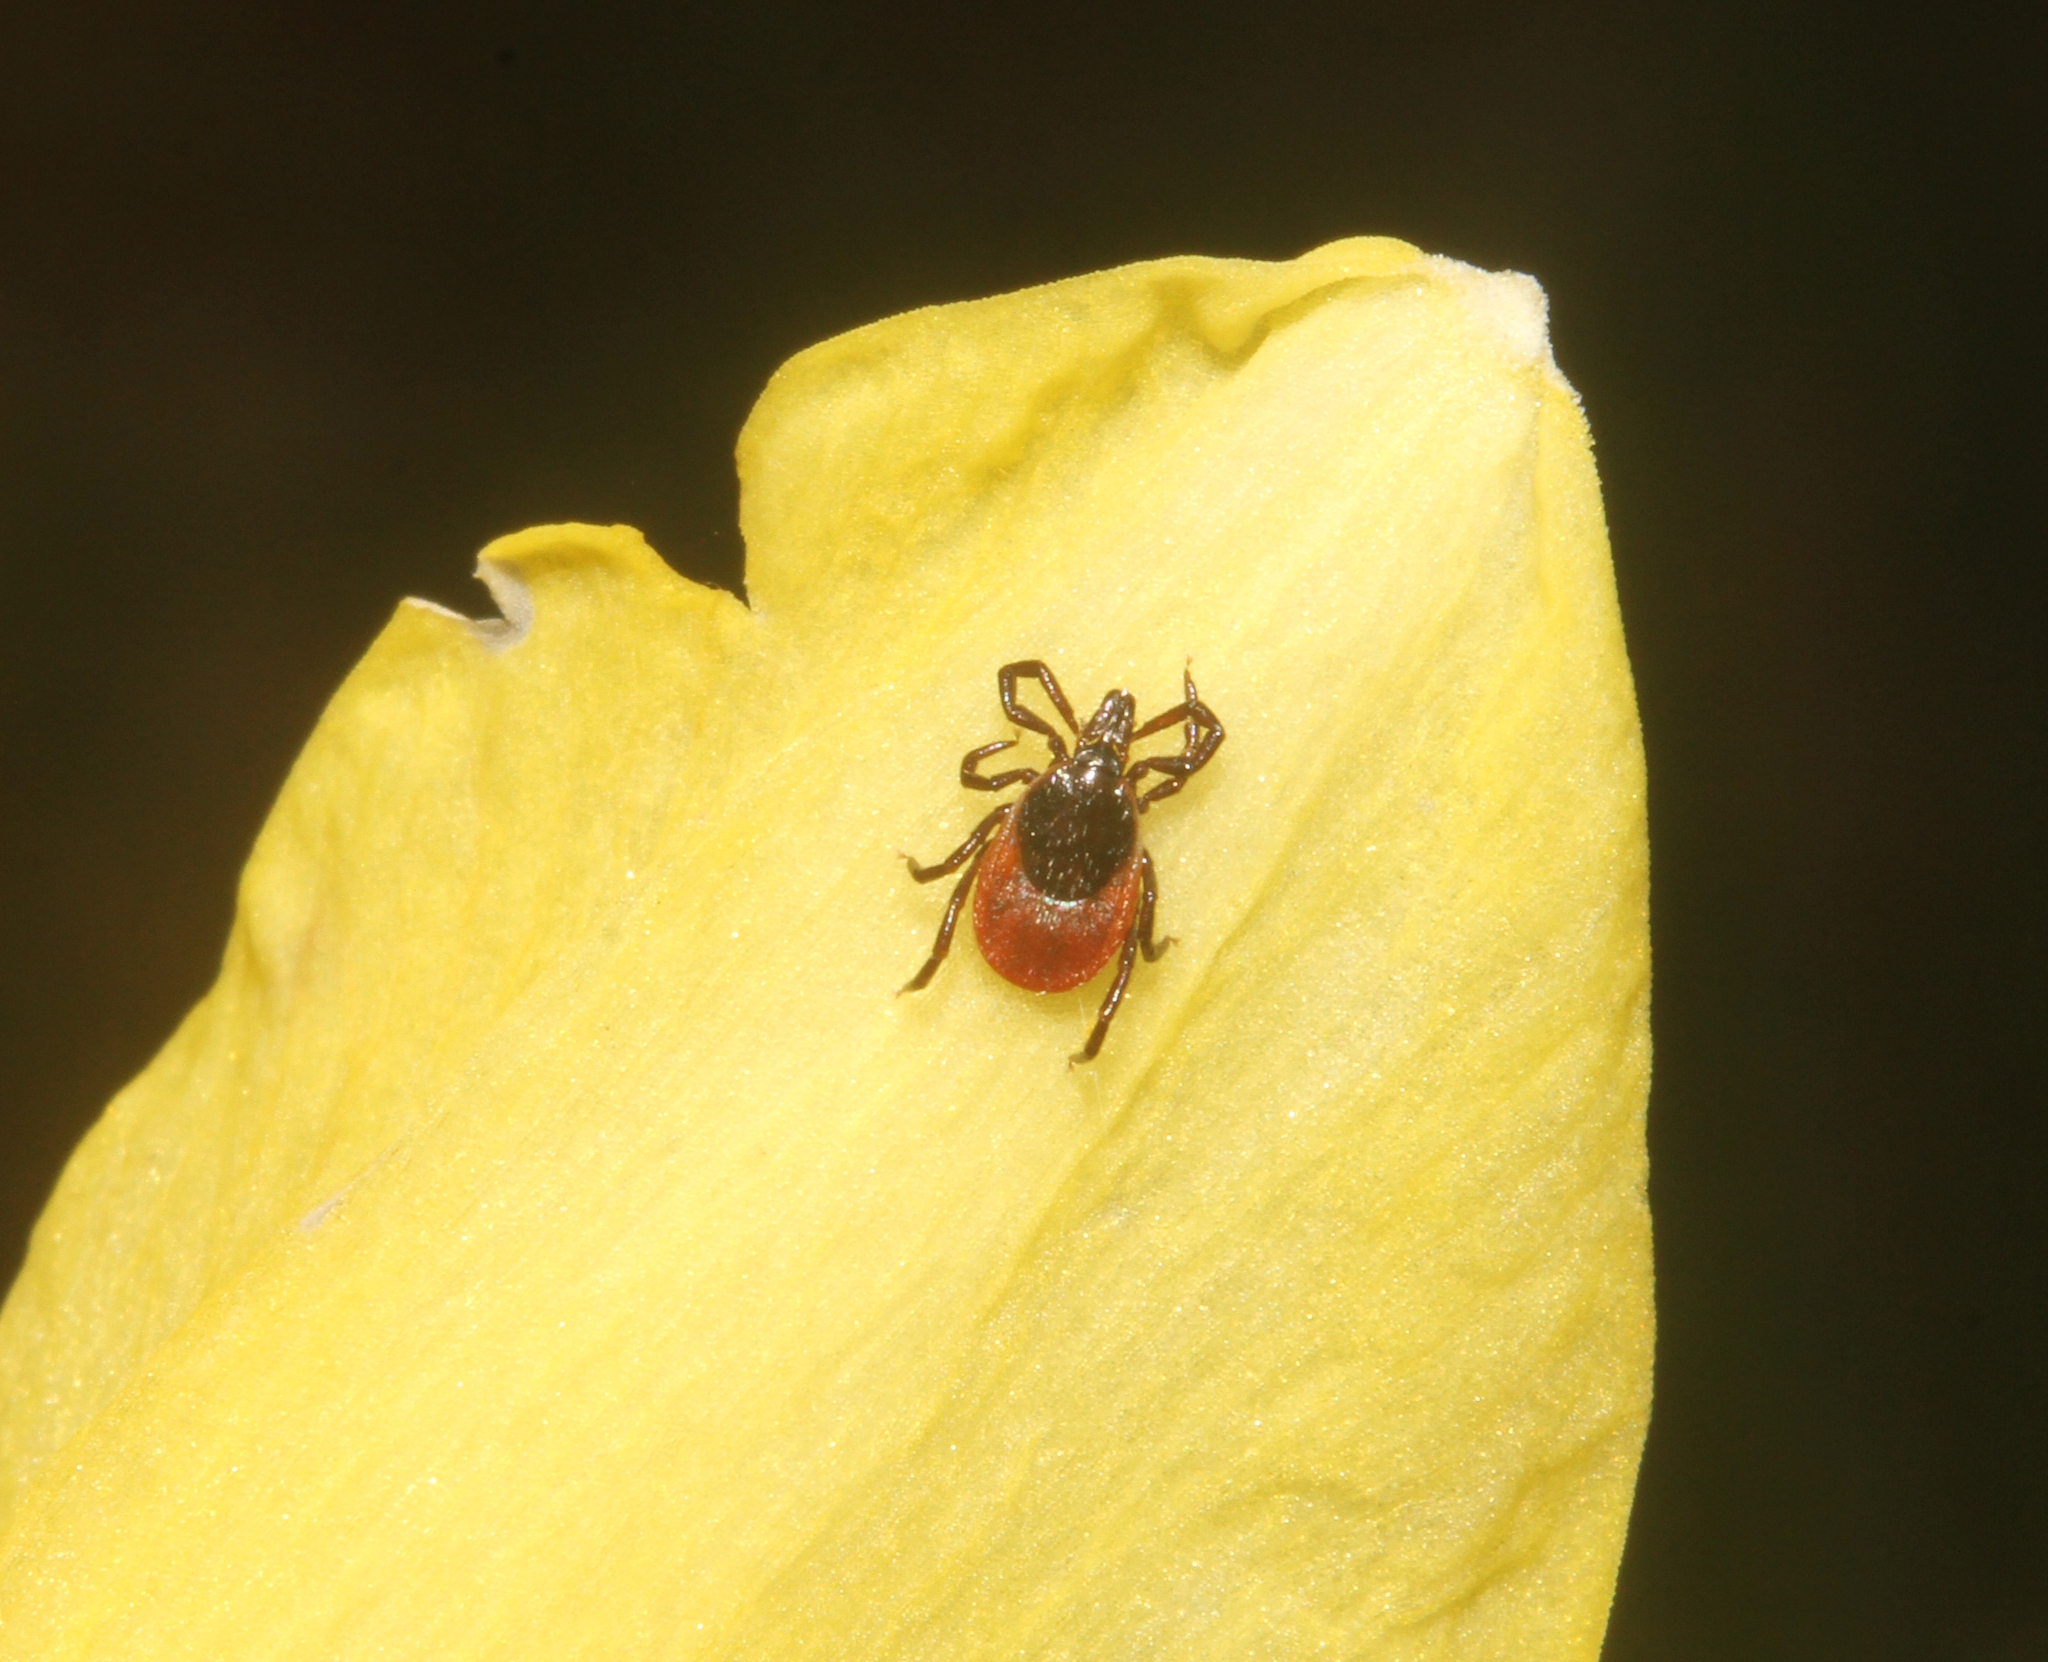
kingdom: Animalia
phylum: Arthropoda
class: Arachnida
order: Ixodida
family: Ixodidae
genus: Ixodes
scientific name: Ixodes ricinus
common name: Castor bean tick
